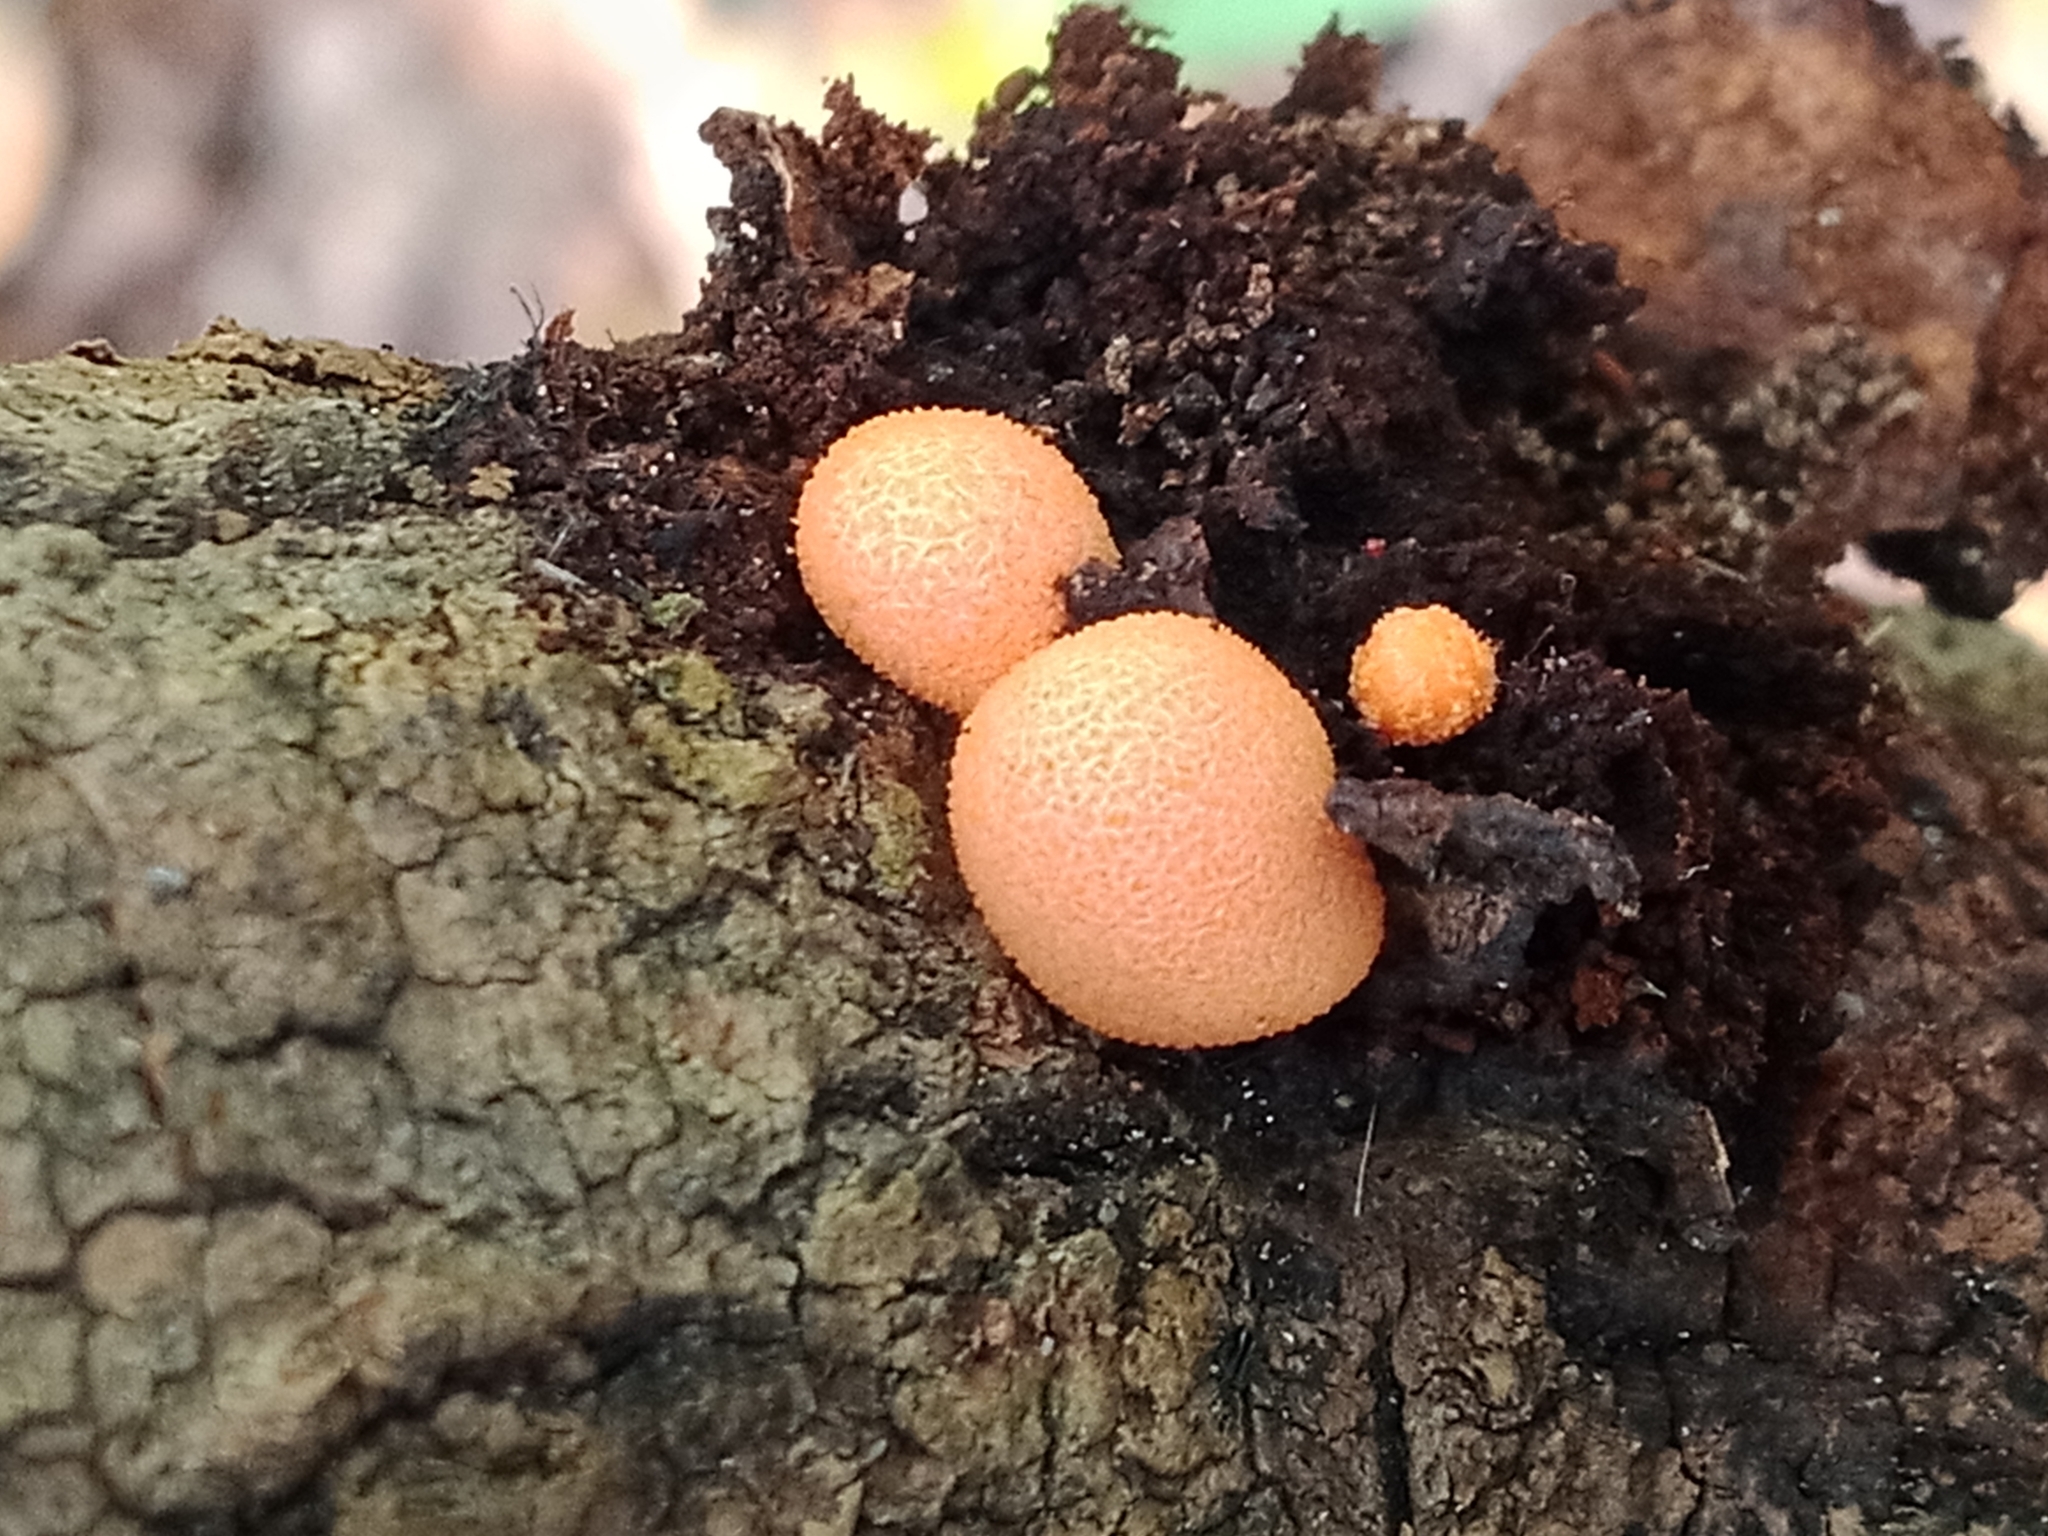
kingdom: Protozoa
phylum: Mycetozoa
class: Myxomycetes
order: Cribrariales
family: Tubiferaceae
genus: Lycogala
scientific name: Lycogala epidendrum
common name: Wolf's milk
